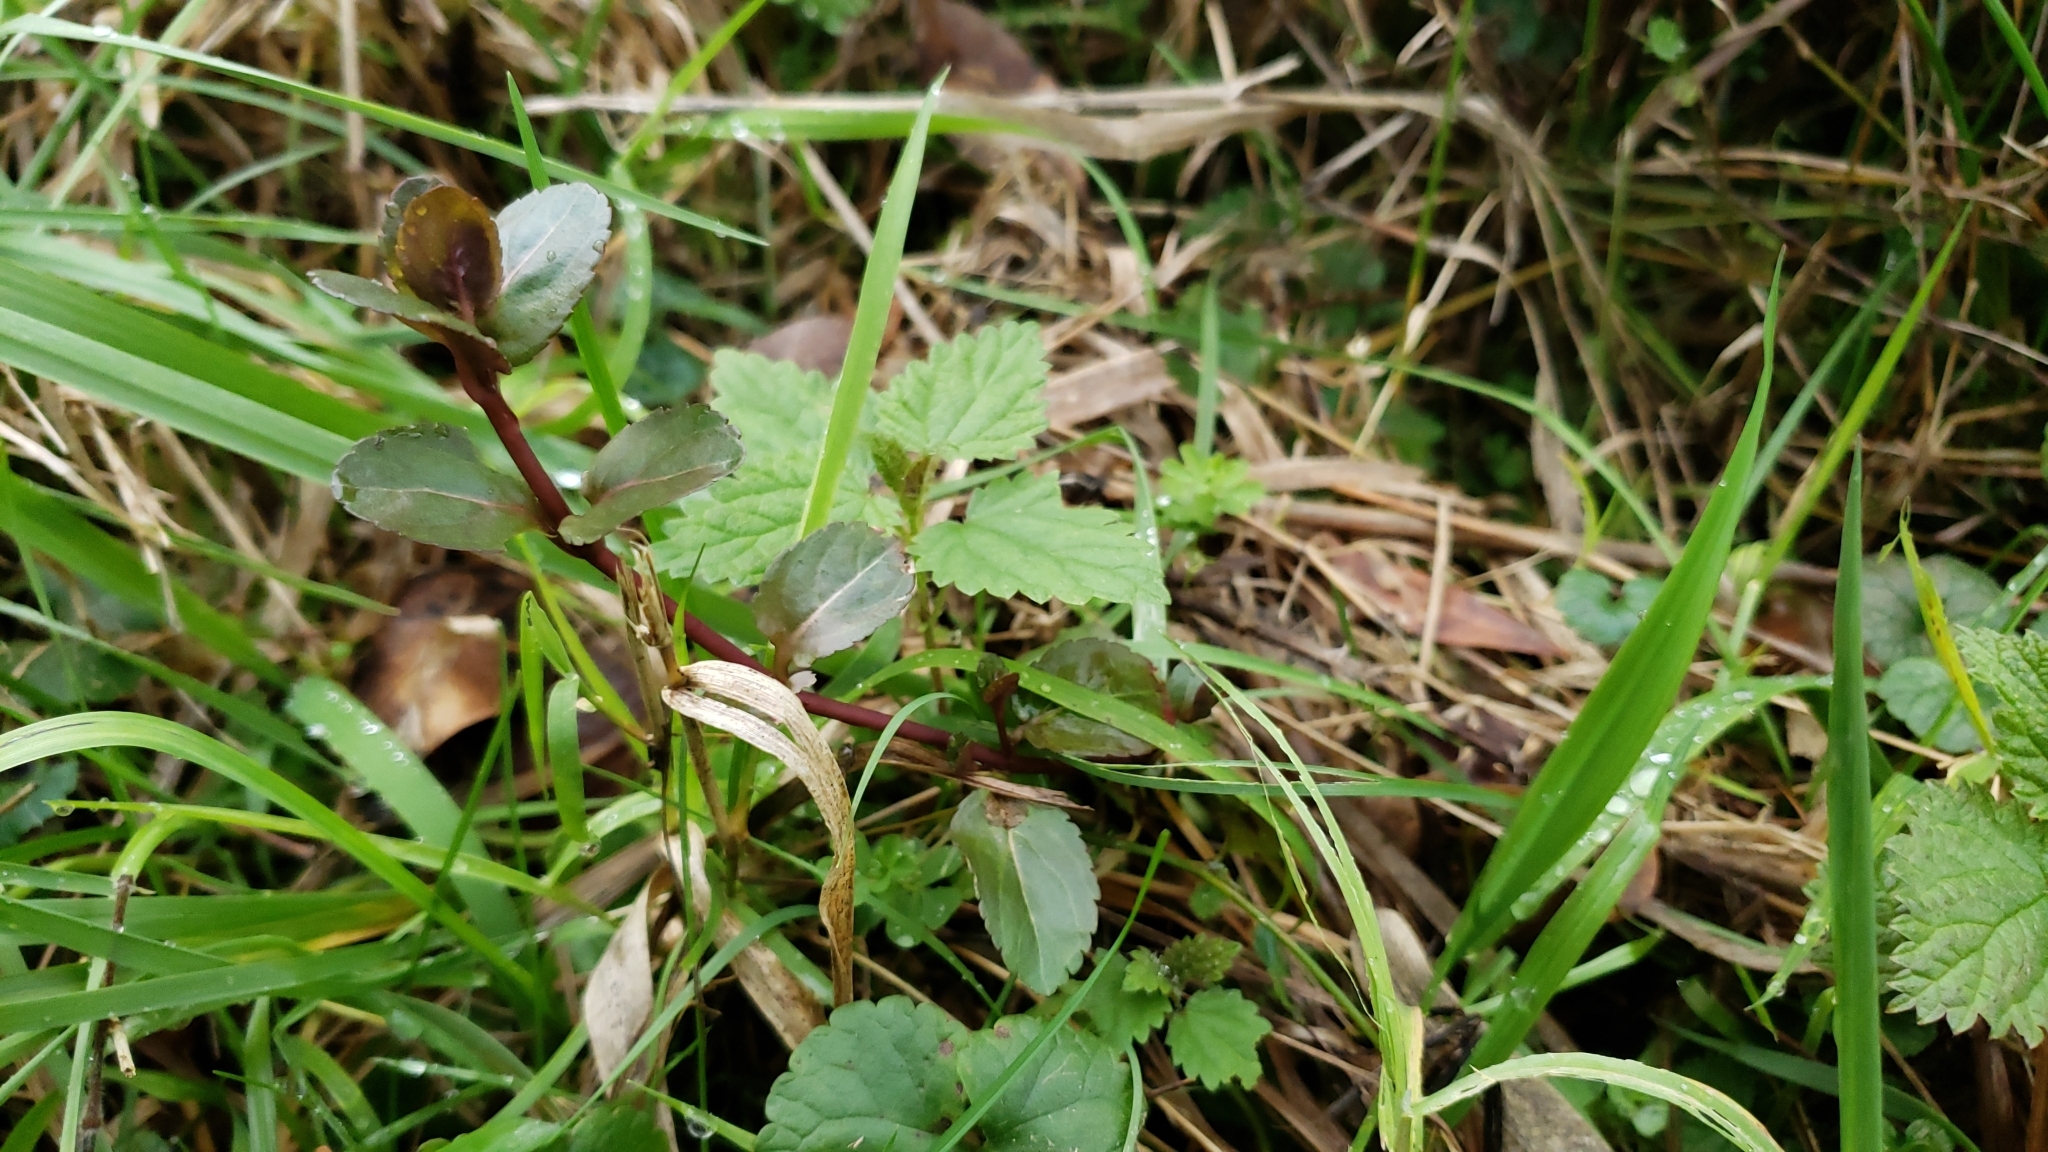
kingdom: Plantae
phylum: Tracheophyta
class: Magnoliopsida
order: Lamiales
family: Plantaginaceae
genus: Veronica
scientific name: Veronica americana
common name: American brooklime
